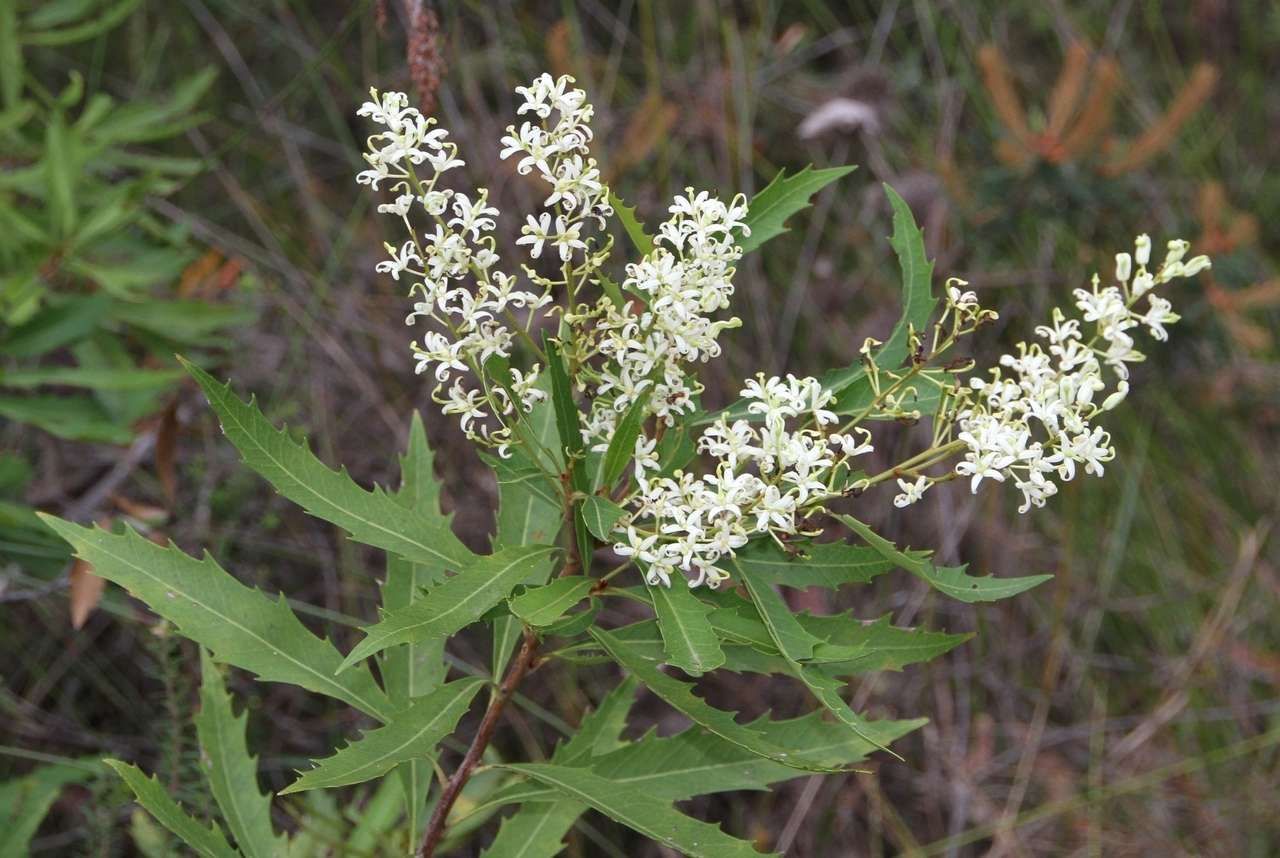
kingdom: Plantae
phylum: Tracheophyta
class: Magnoliopsida
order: Proteales
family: Proteaceae
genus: Lomatia
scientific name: Lomatia fraseri
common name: Forest lomatia
